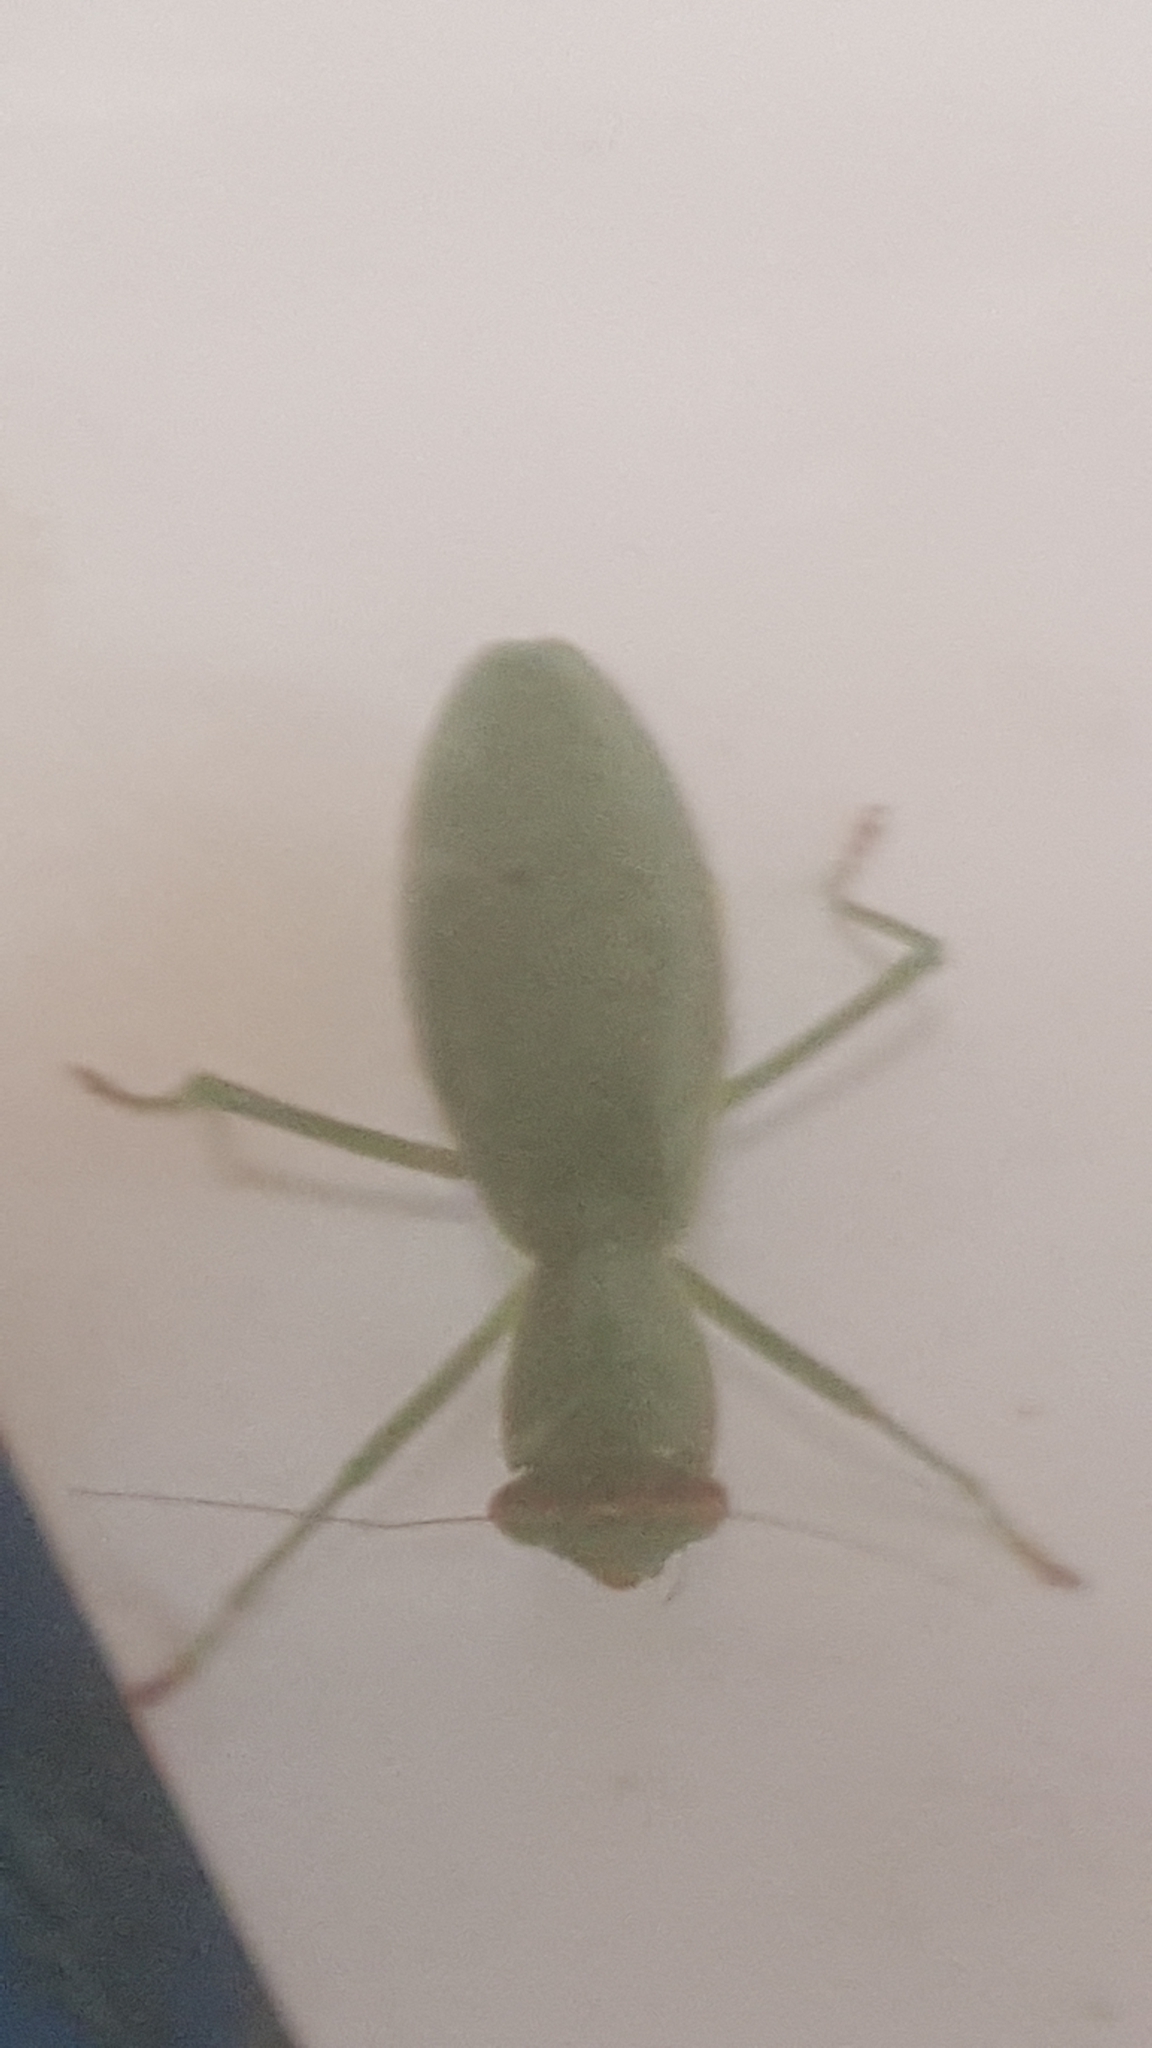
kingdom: Animalia
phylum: Arthropoda
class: Insecta
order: Mantodea
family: Mantidae
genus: Orthodera
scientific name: Orthodera novaezealandiae
